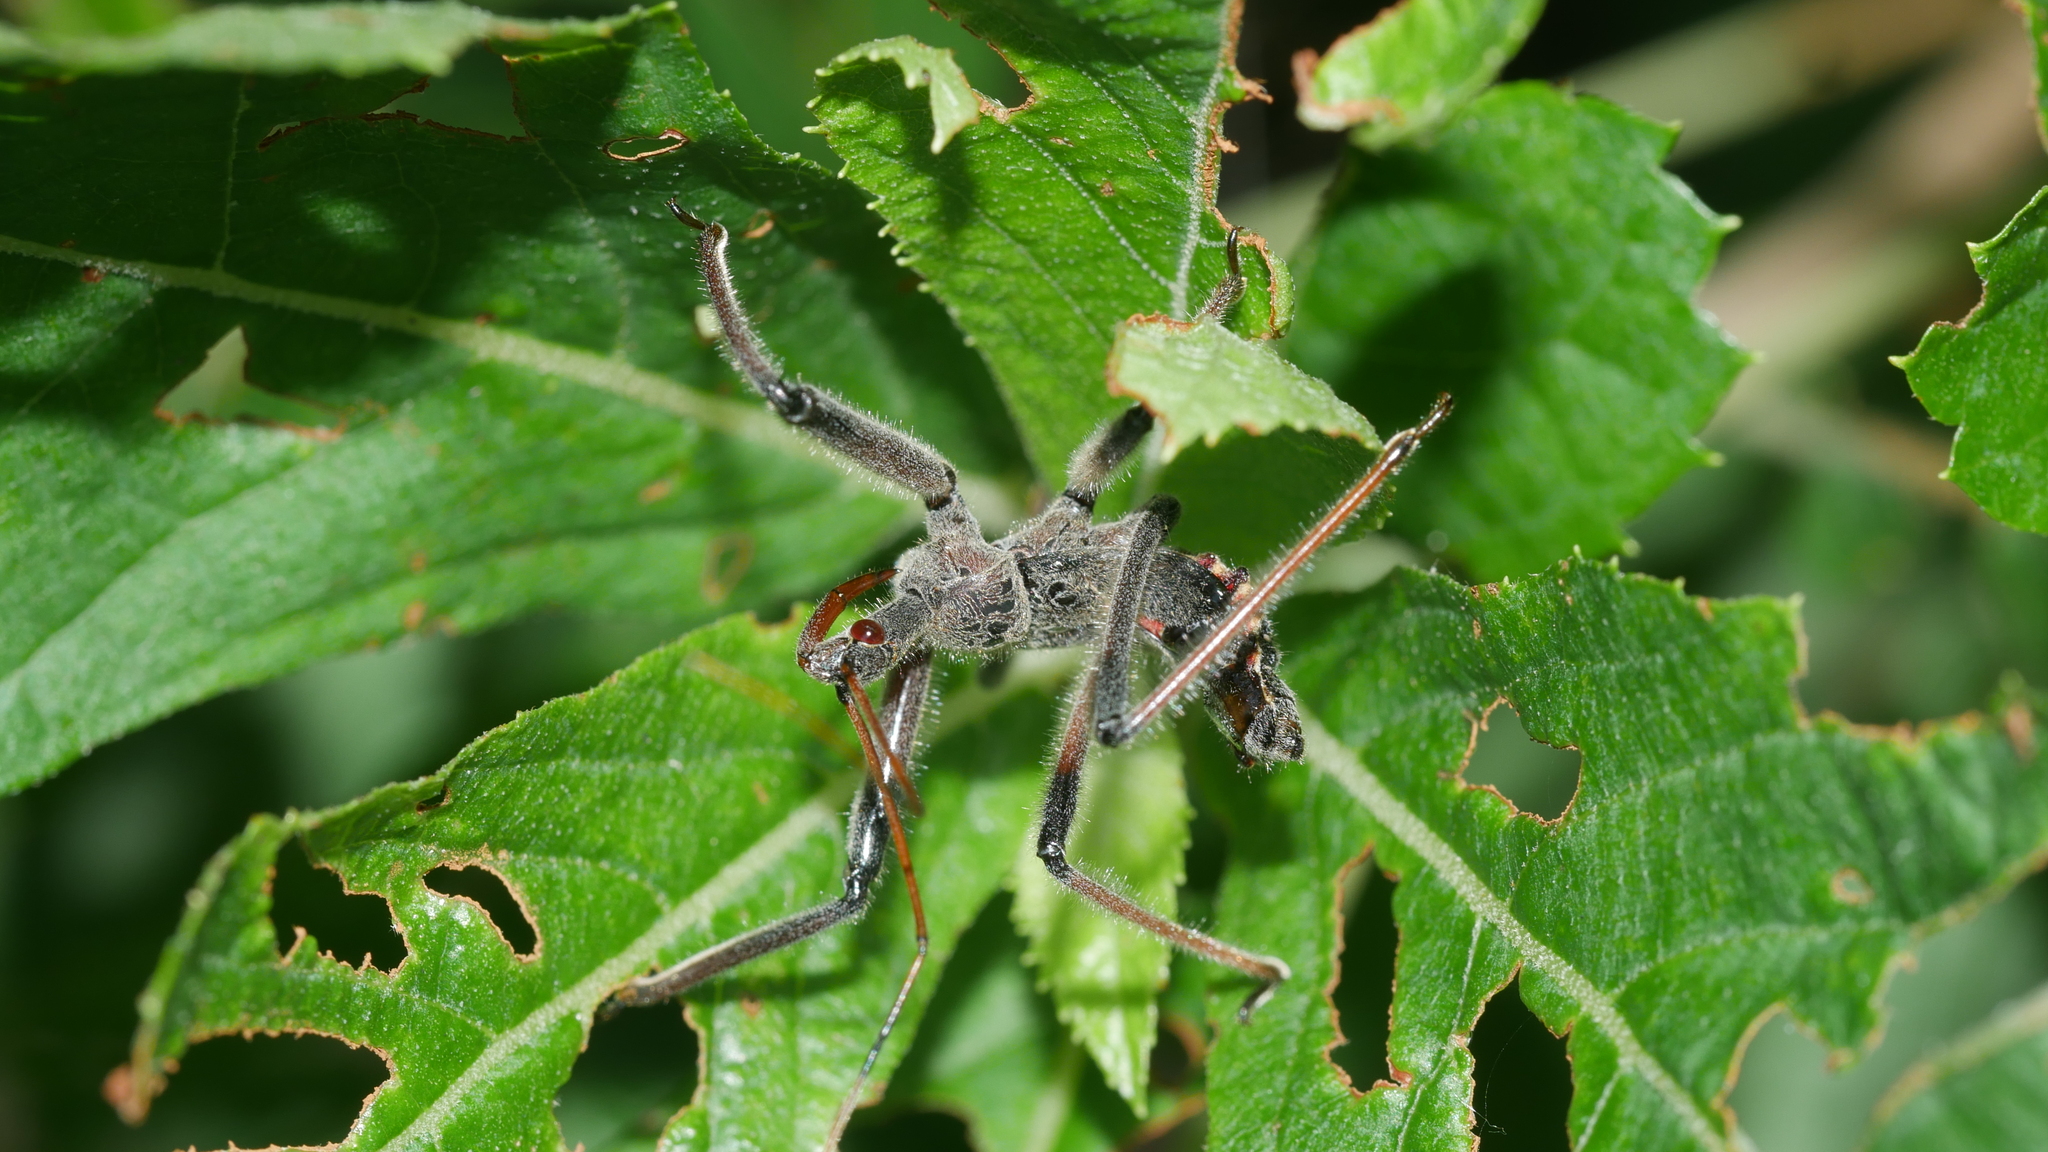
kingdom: Animalia
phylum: Arthropoda
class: Insecta
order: Hemiptera
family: Reduviidae
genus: Arilus
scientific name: Arilus cristatus
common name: North american wheel bug
